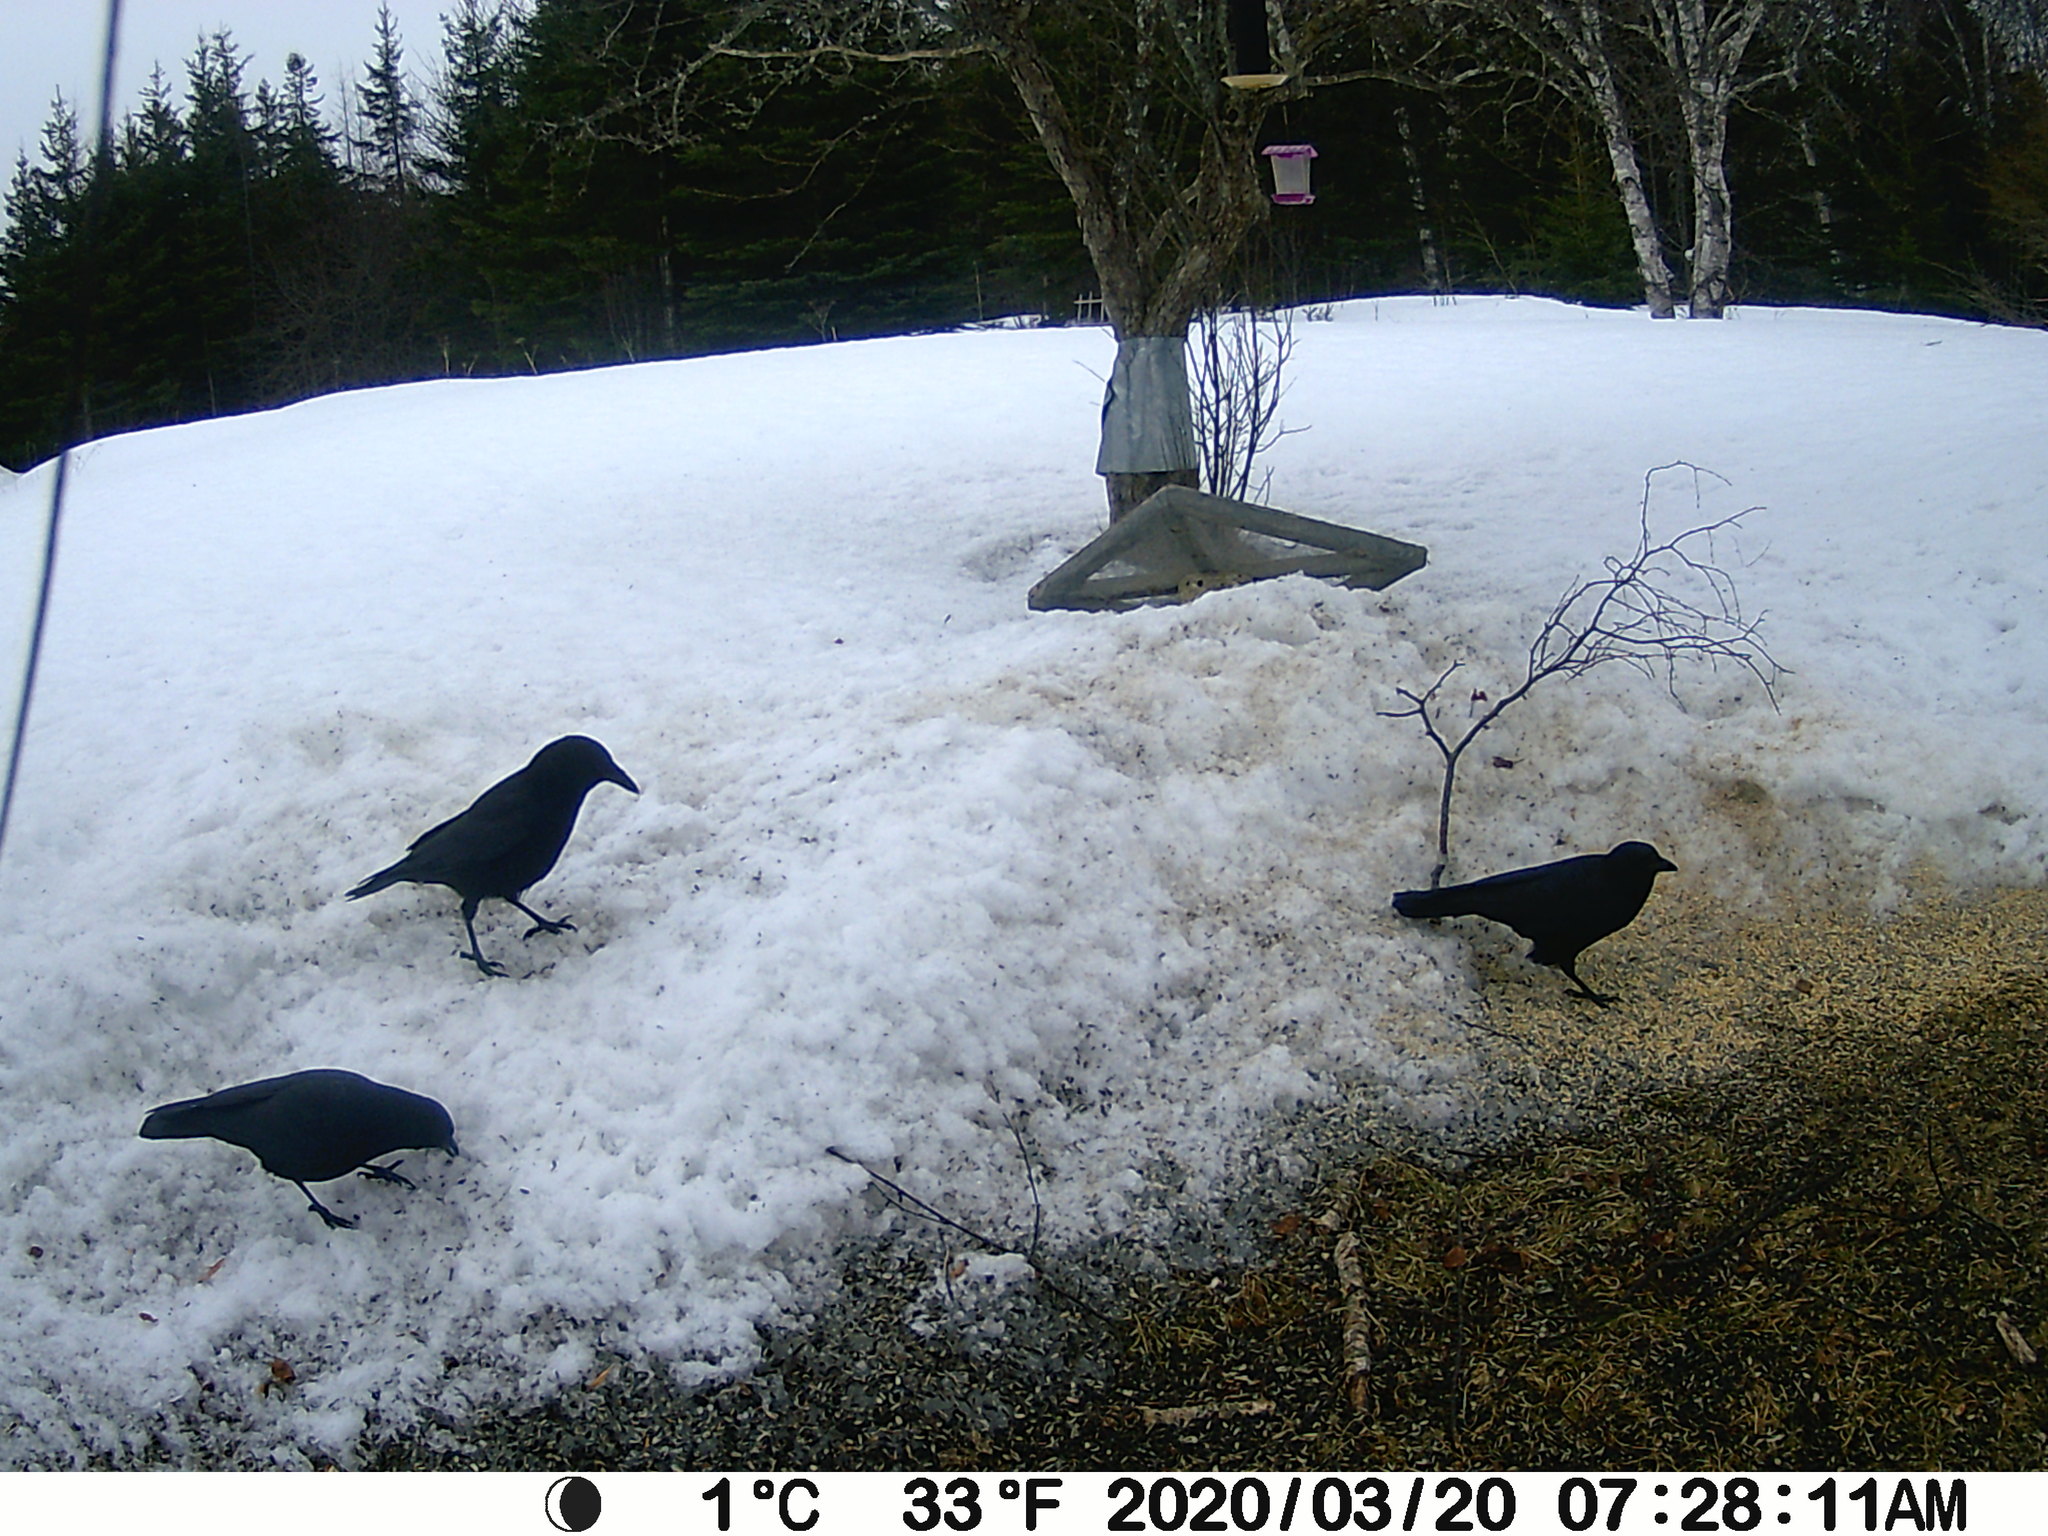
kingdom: Animalia
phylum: Chordata
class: Aves
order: Passeriformes
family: Corvidae
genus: Corvus
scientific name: Corvus brachyrhynchos
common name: American crow
